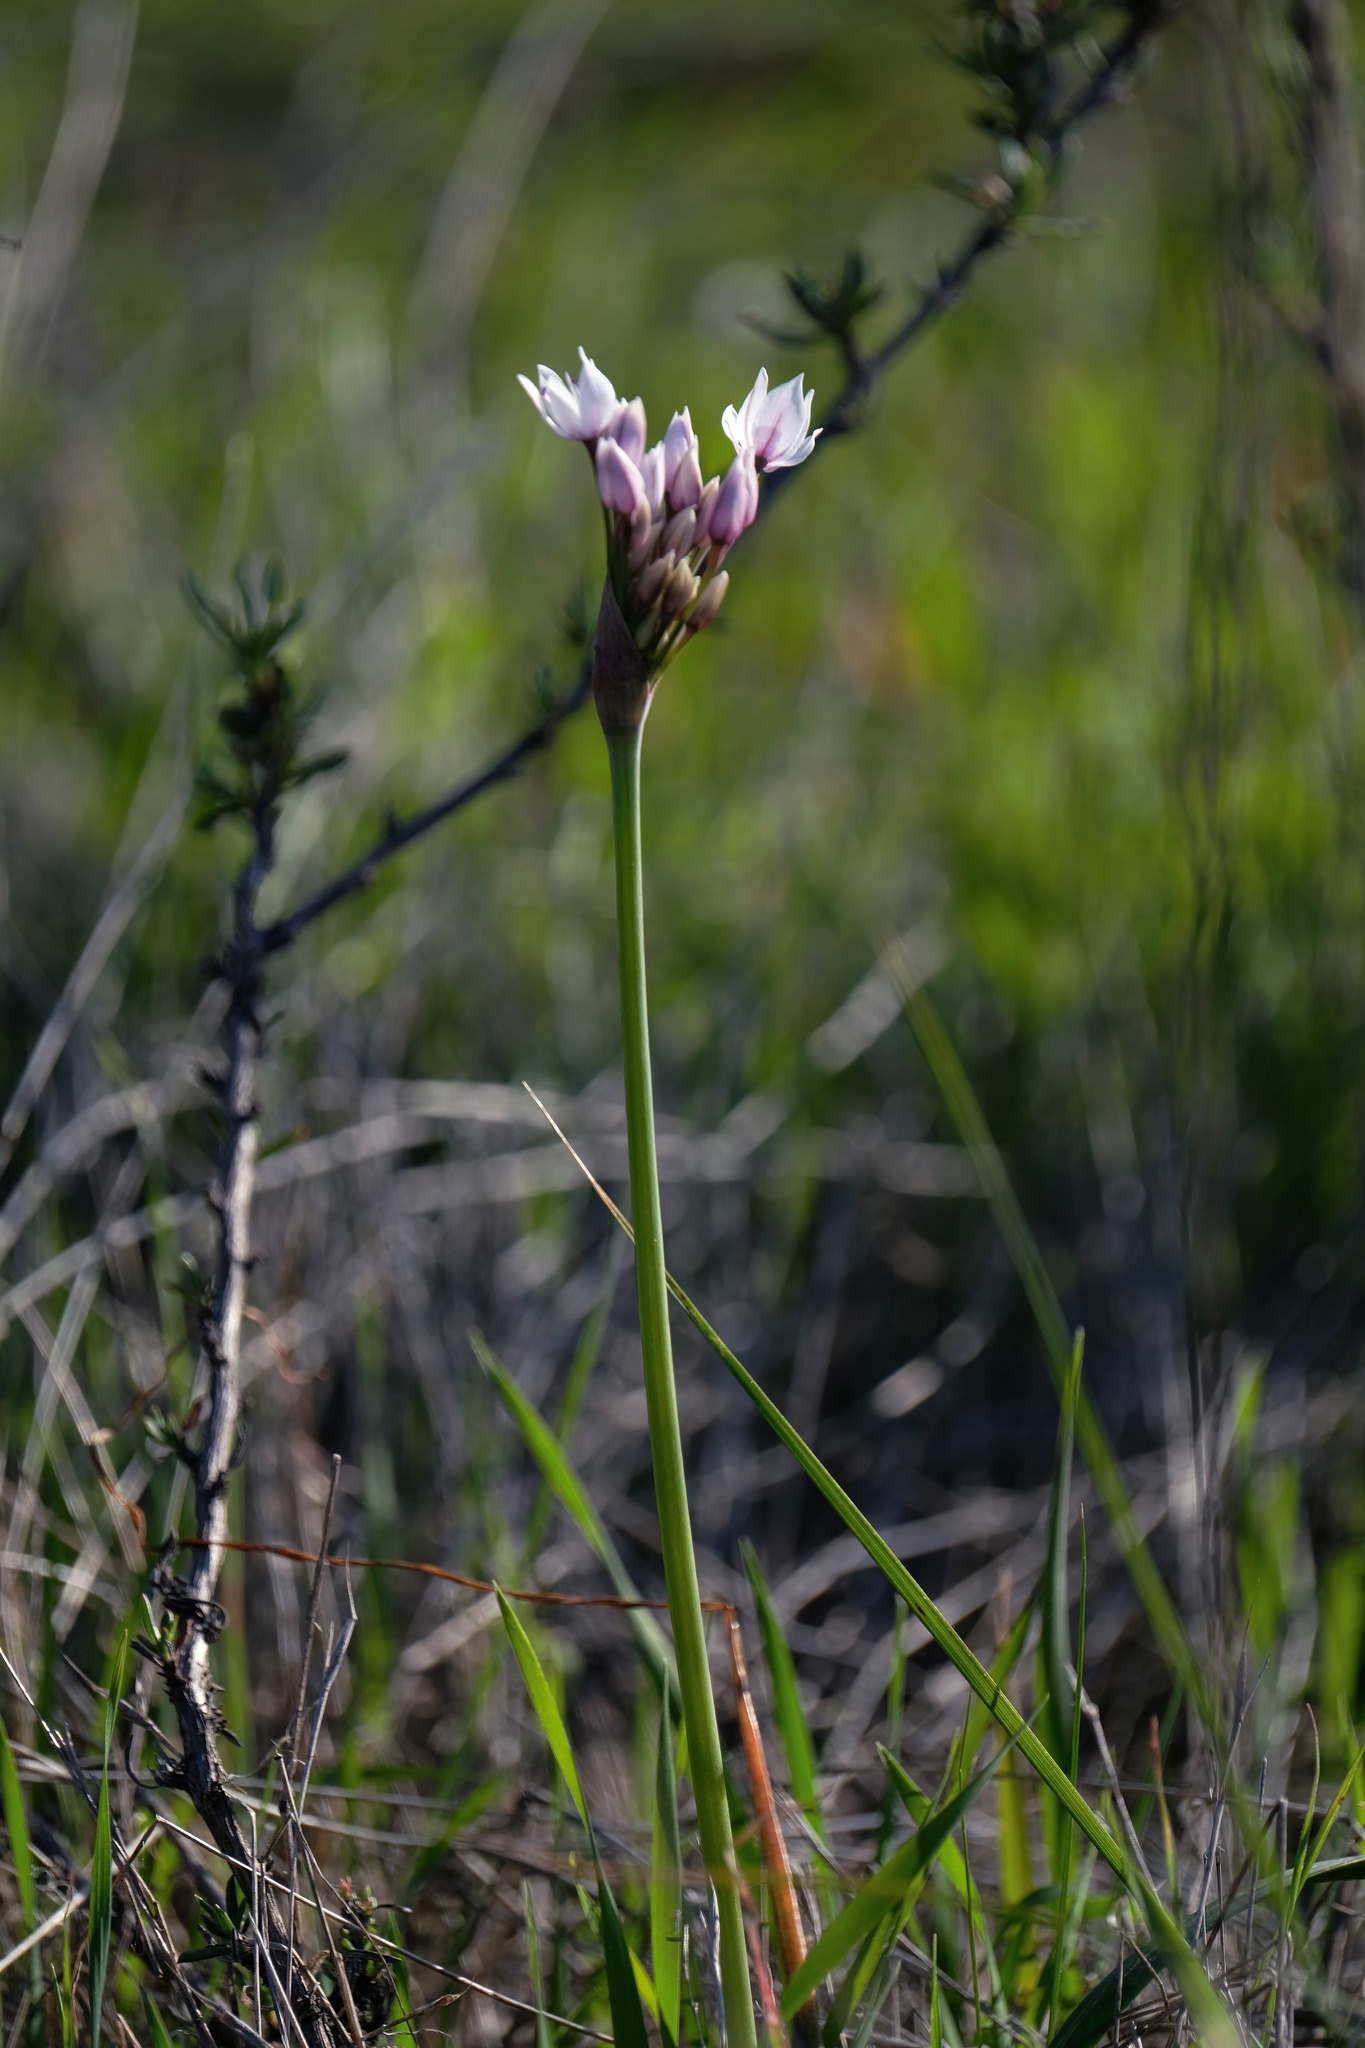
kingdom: Plantae
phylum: Tracheophyta
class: Liliopsida
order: Asparagales
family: Amaryllidaceae
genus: Allium
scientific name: Allium praecox
